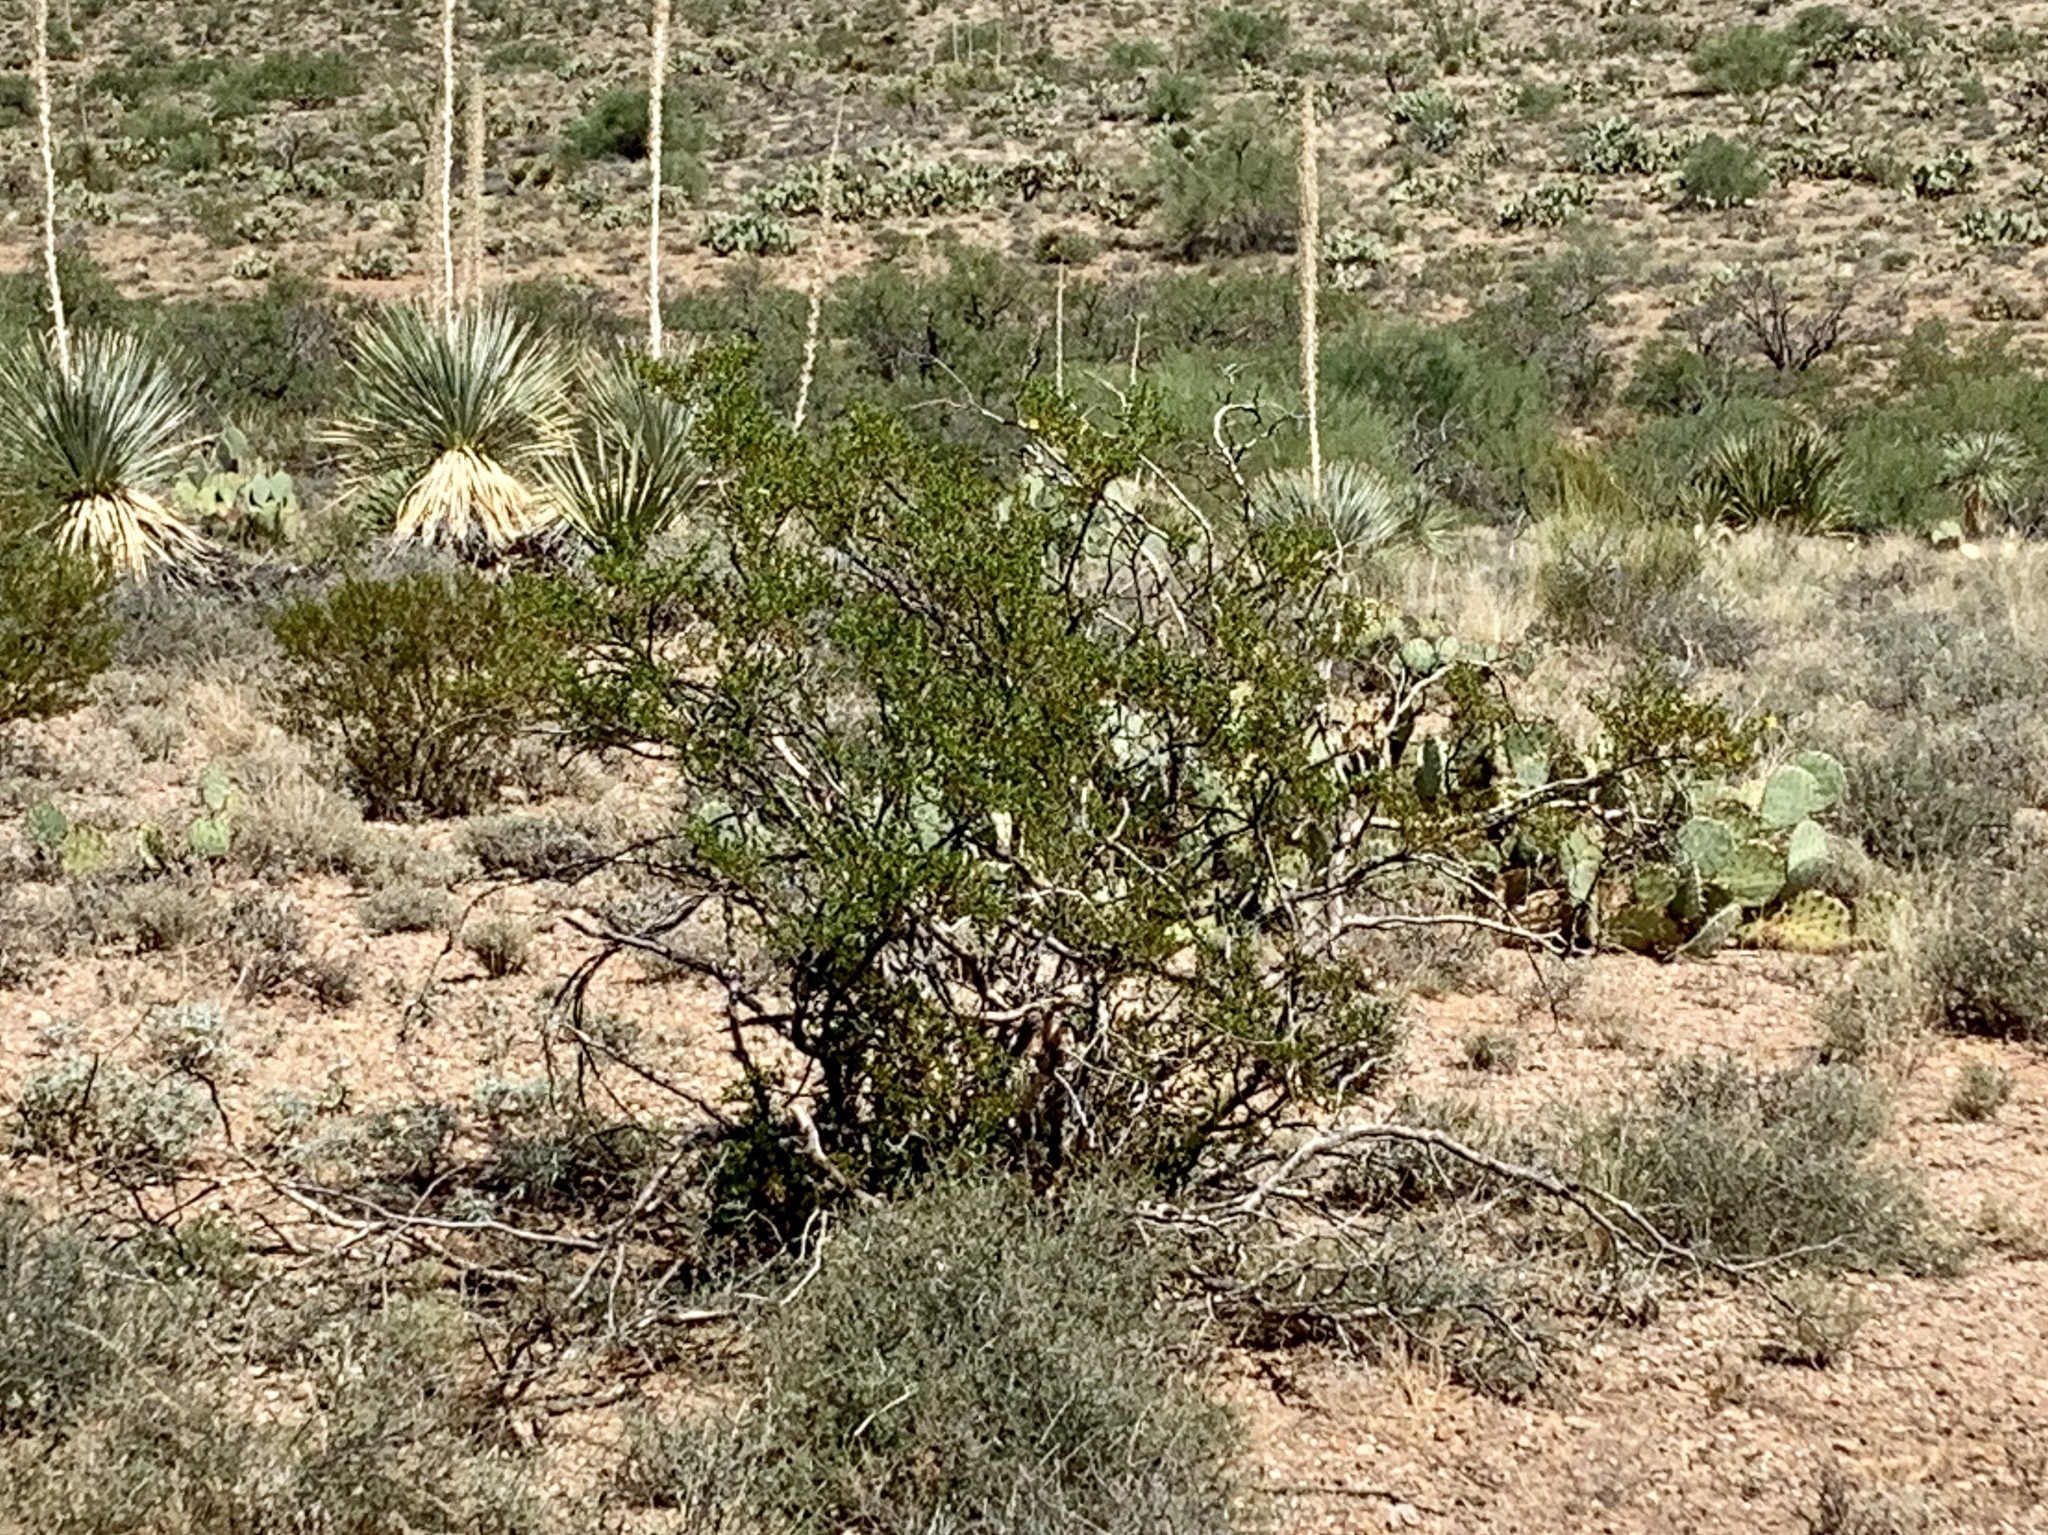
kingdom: Plantae
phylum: Tracheophyta
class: Magnoliopsida
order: Zygophyllales
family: Zygophyllaceae
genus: Larrea
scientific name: Larrea tridentata
